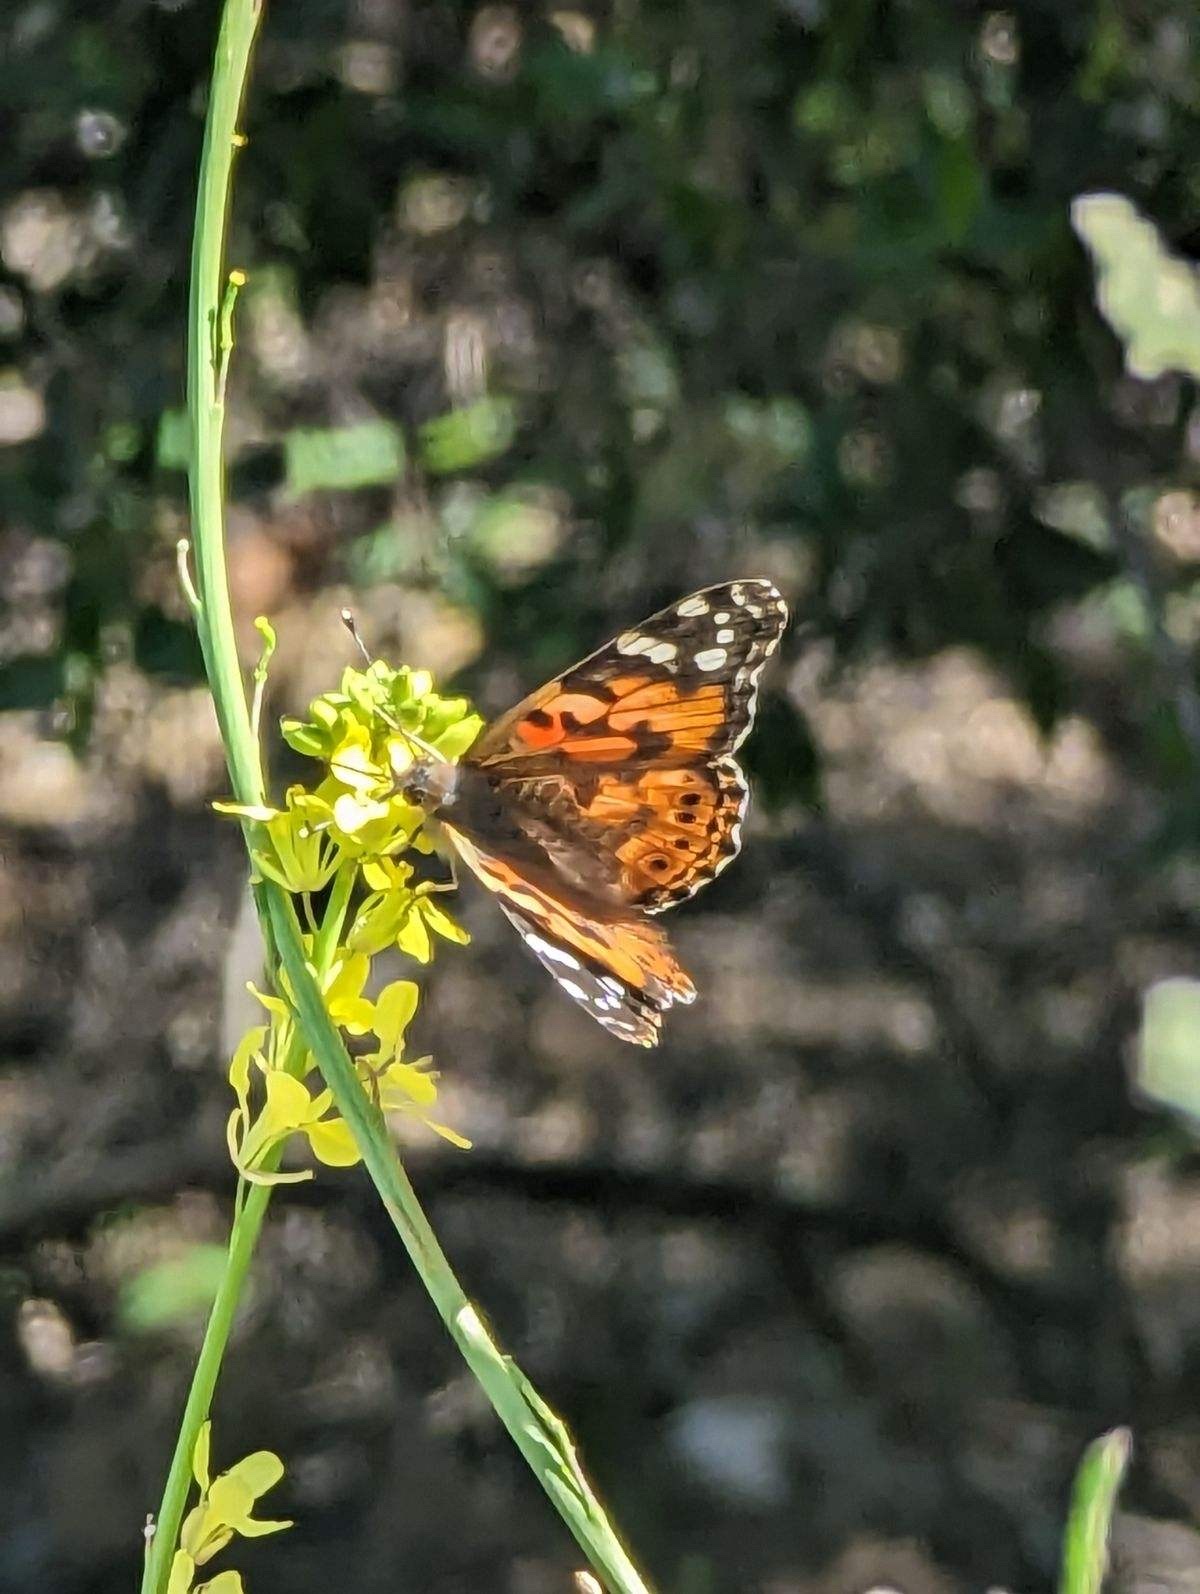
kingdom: Animalia
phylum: Arthropoda
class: Insecta
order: Lepidoptera
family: Nymphalidae
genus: Vanessa
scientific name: Vanessa cardui
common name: Painted lady
